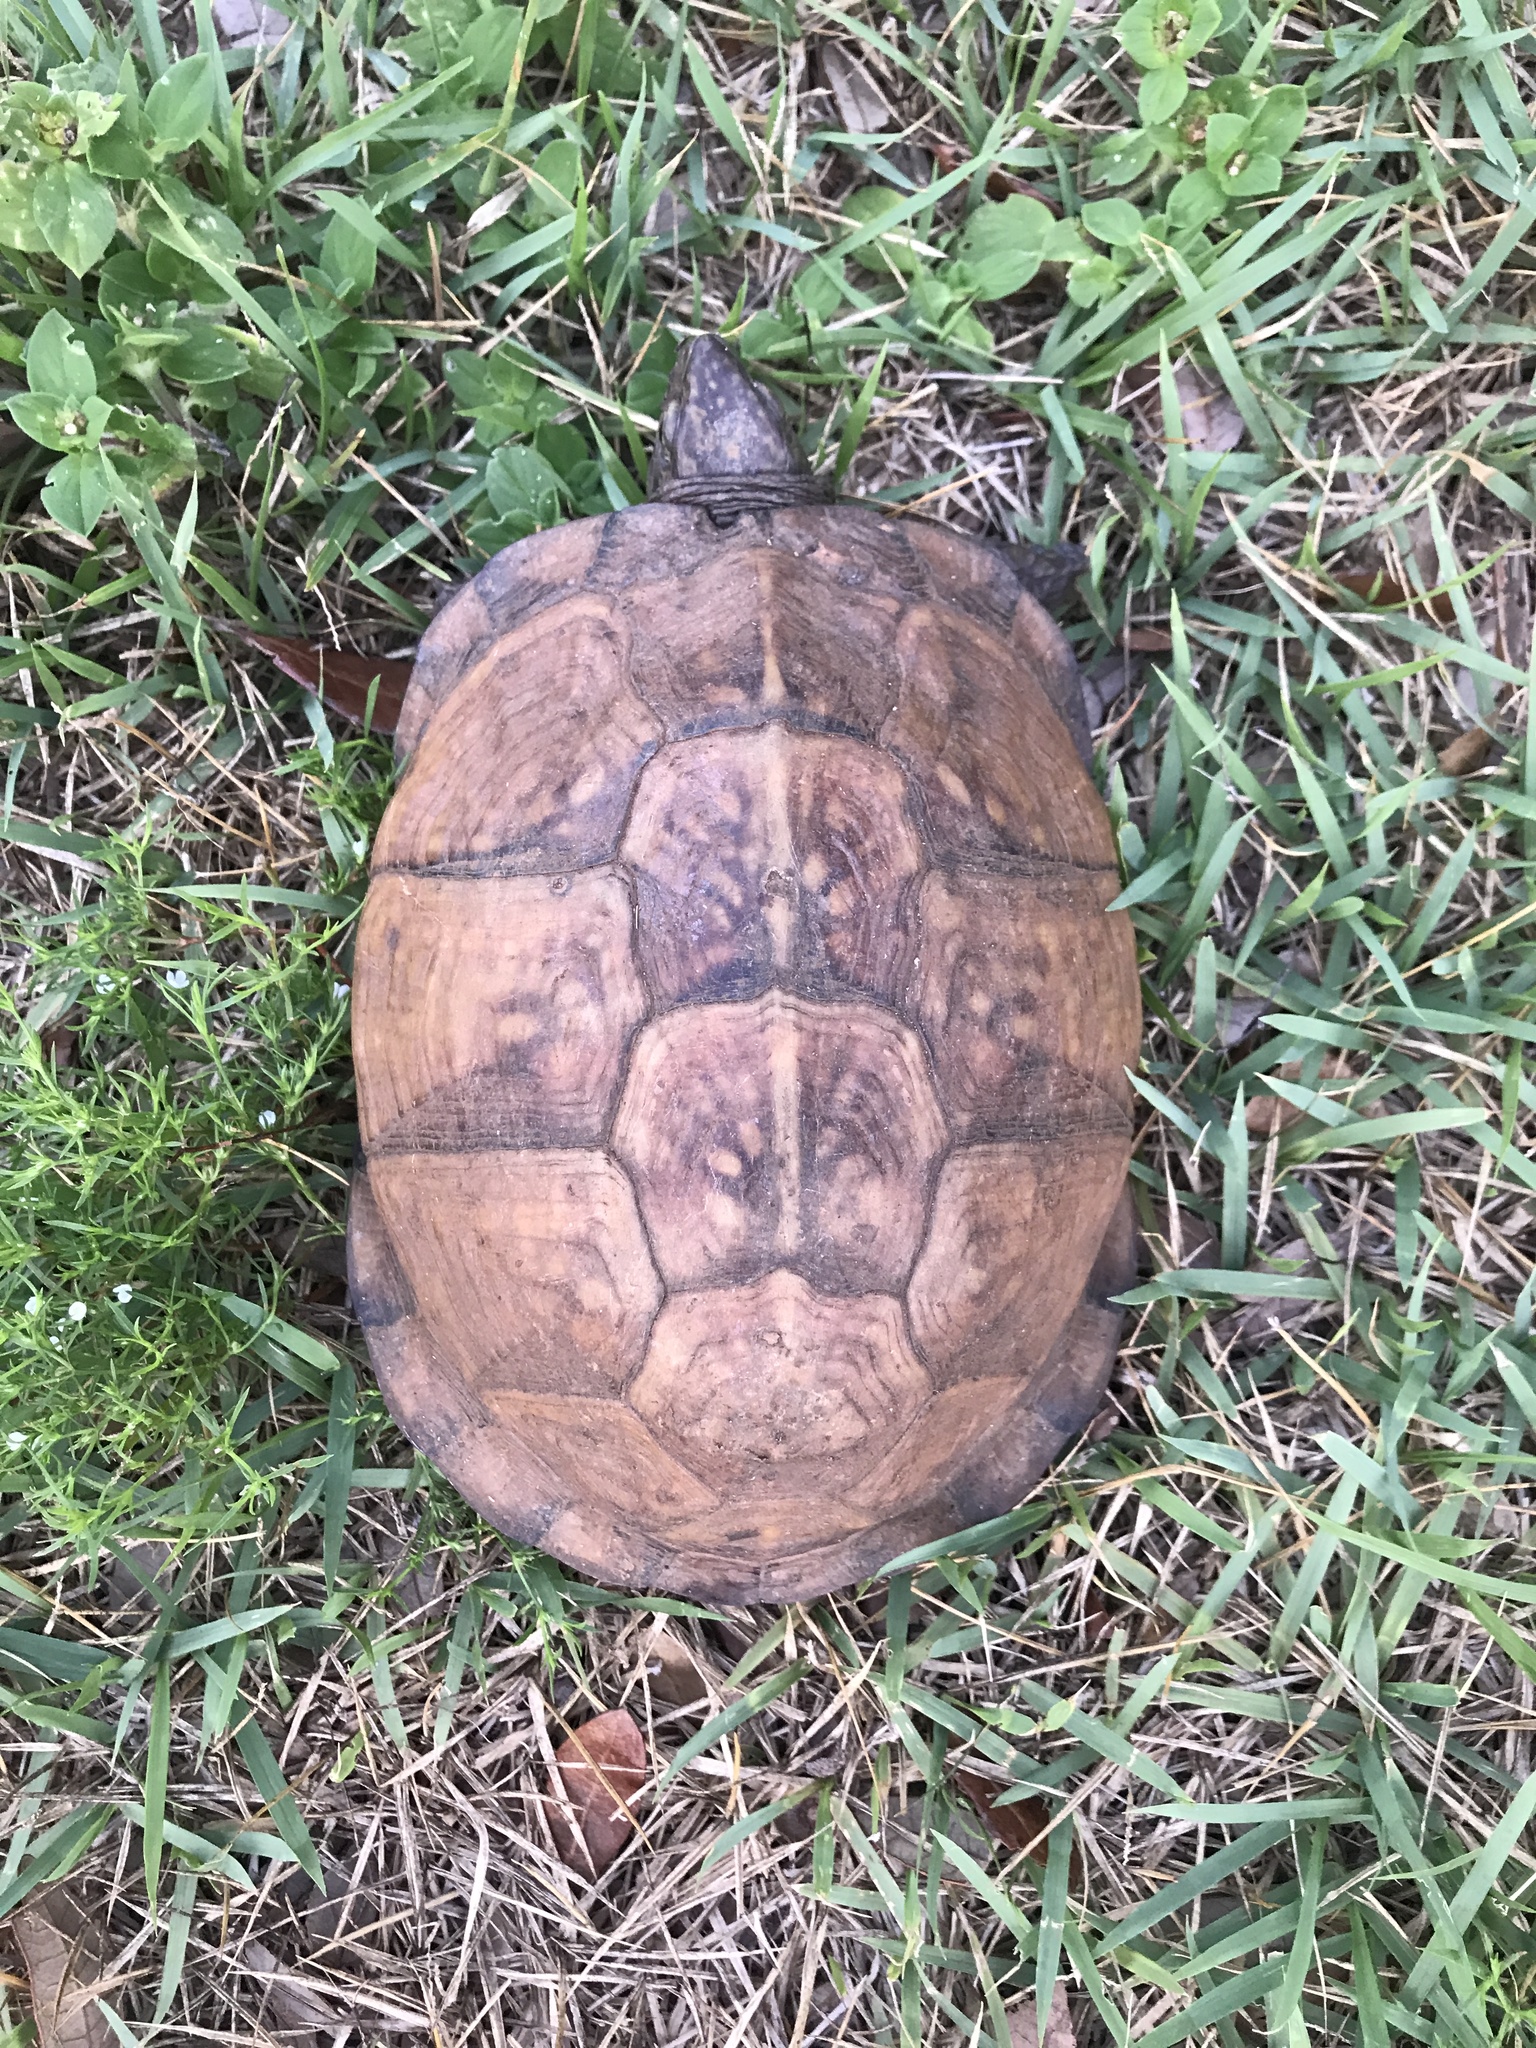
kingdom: Animalia
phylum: Chordata
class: Testudines
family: Emydidae
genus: Terrapene
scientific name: Terrapene carolina
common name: Common box turtle
